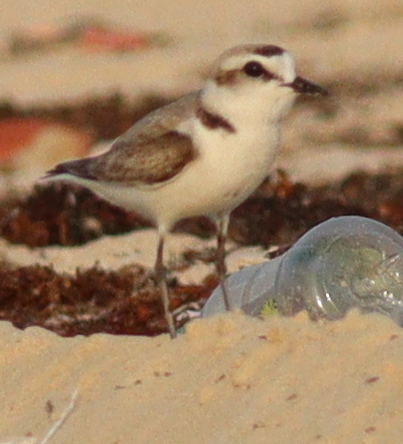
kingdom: Animalia
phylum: Chordata
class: Aves
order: Charadriiformes
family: Charadriidae
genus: Charadrius
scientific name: Charadrius alexandrinus
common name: Kentish plover
